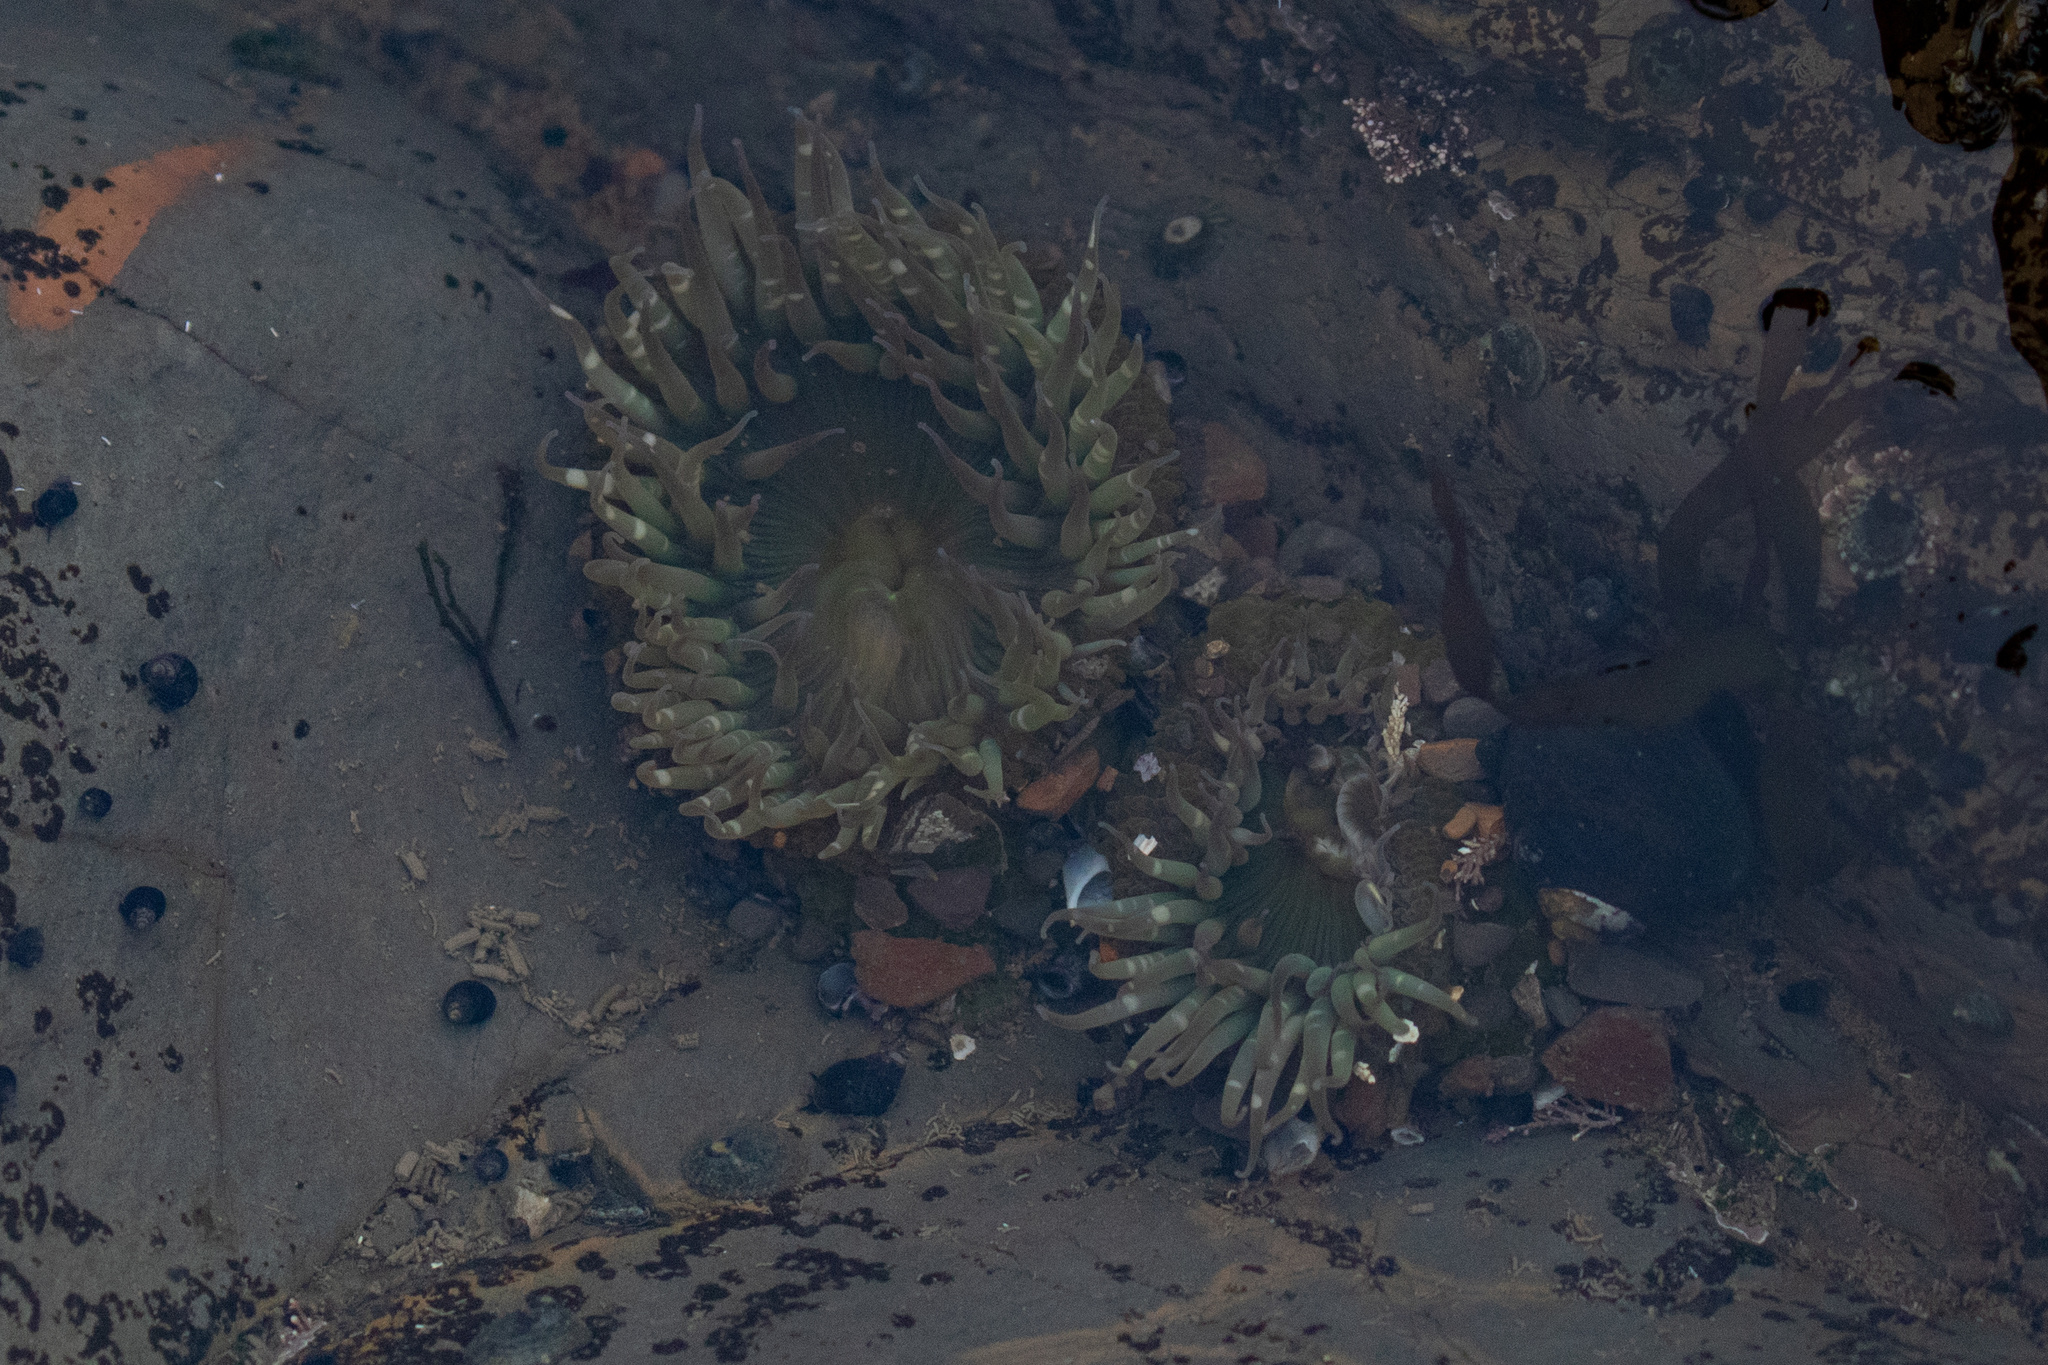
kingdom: Animalia
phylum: Cnidaria
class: Anthozoa
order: Actiniaria
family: Actiniidae
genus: Anthopleura
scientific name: Anthopleura elegantissima
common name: Clonal anemone
